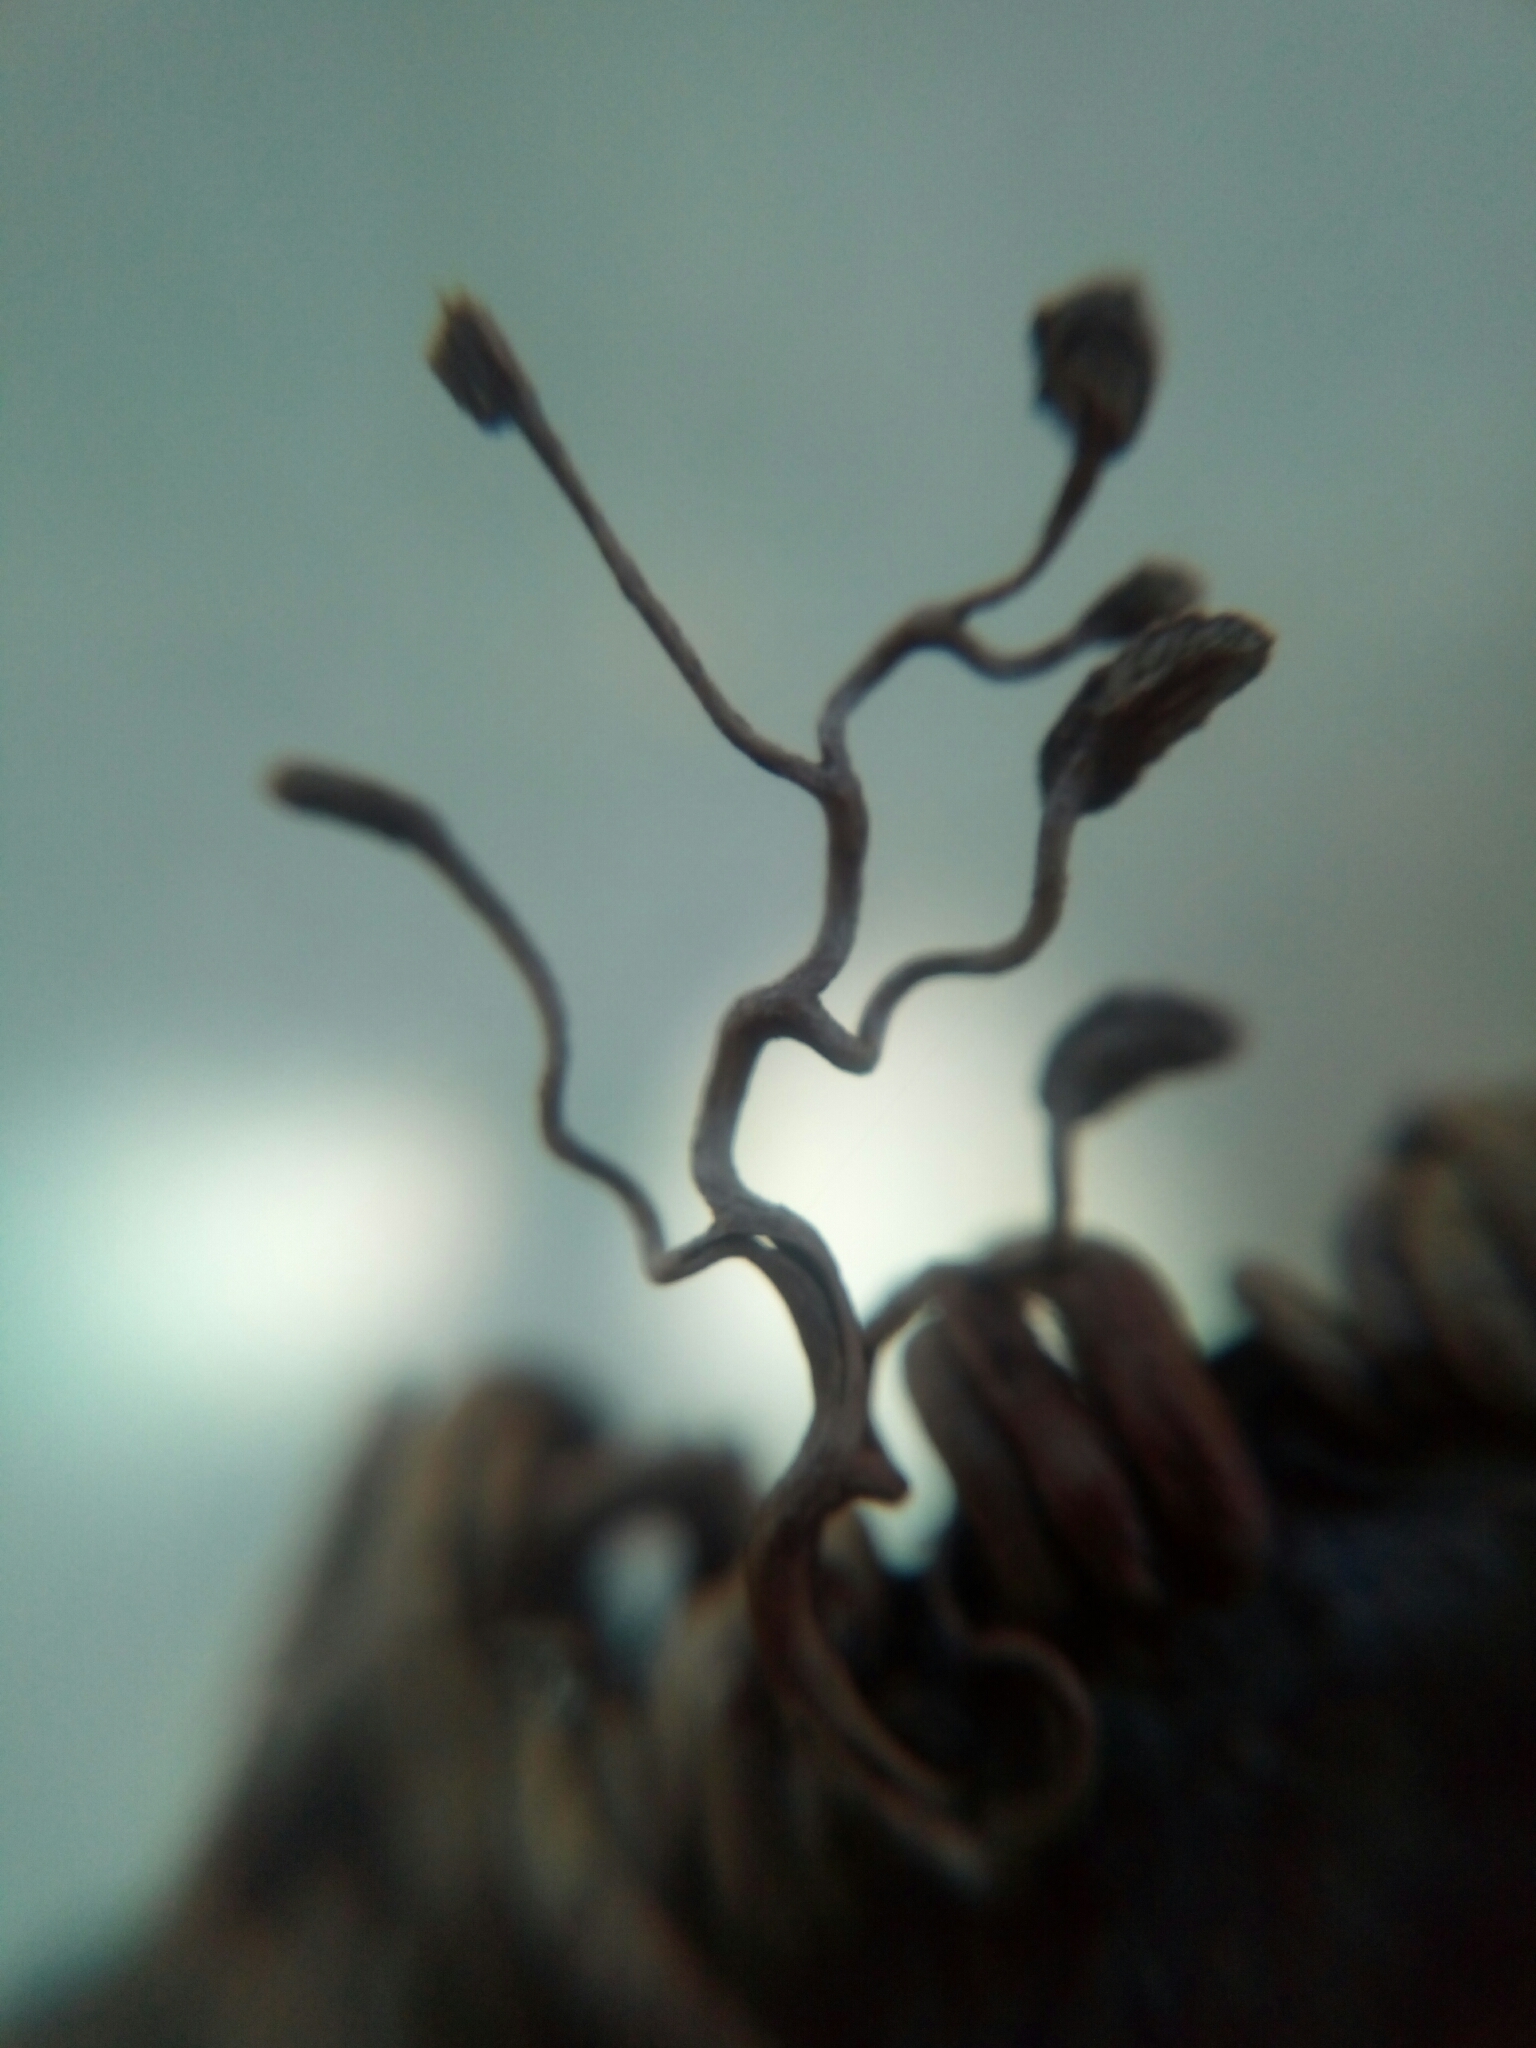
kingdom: Plantae
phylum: Tracheophyta
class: Magnoliopsida
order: Vitales
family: Vitaceae
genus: Parthenocissus
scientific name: Parthenocissus quinquefolia
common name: Virginia-creeper
